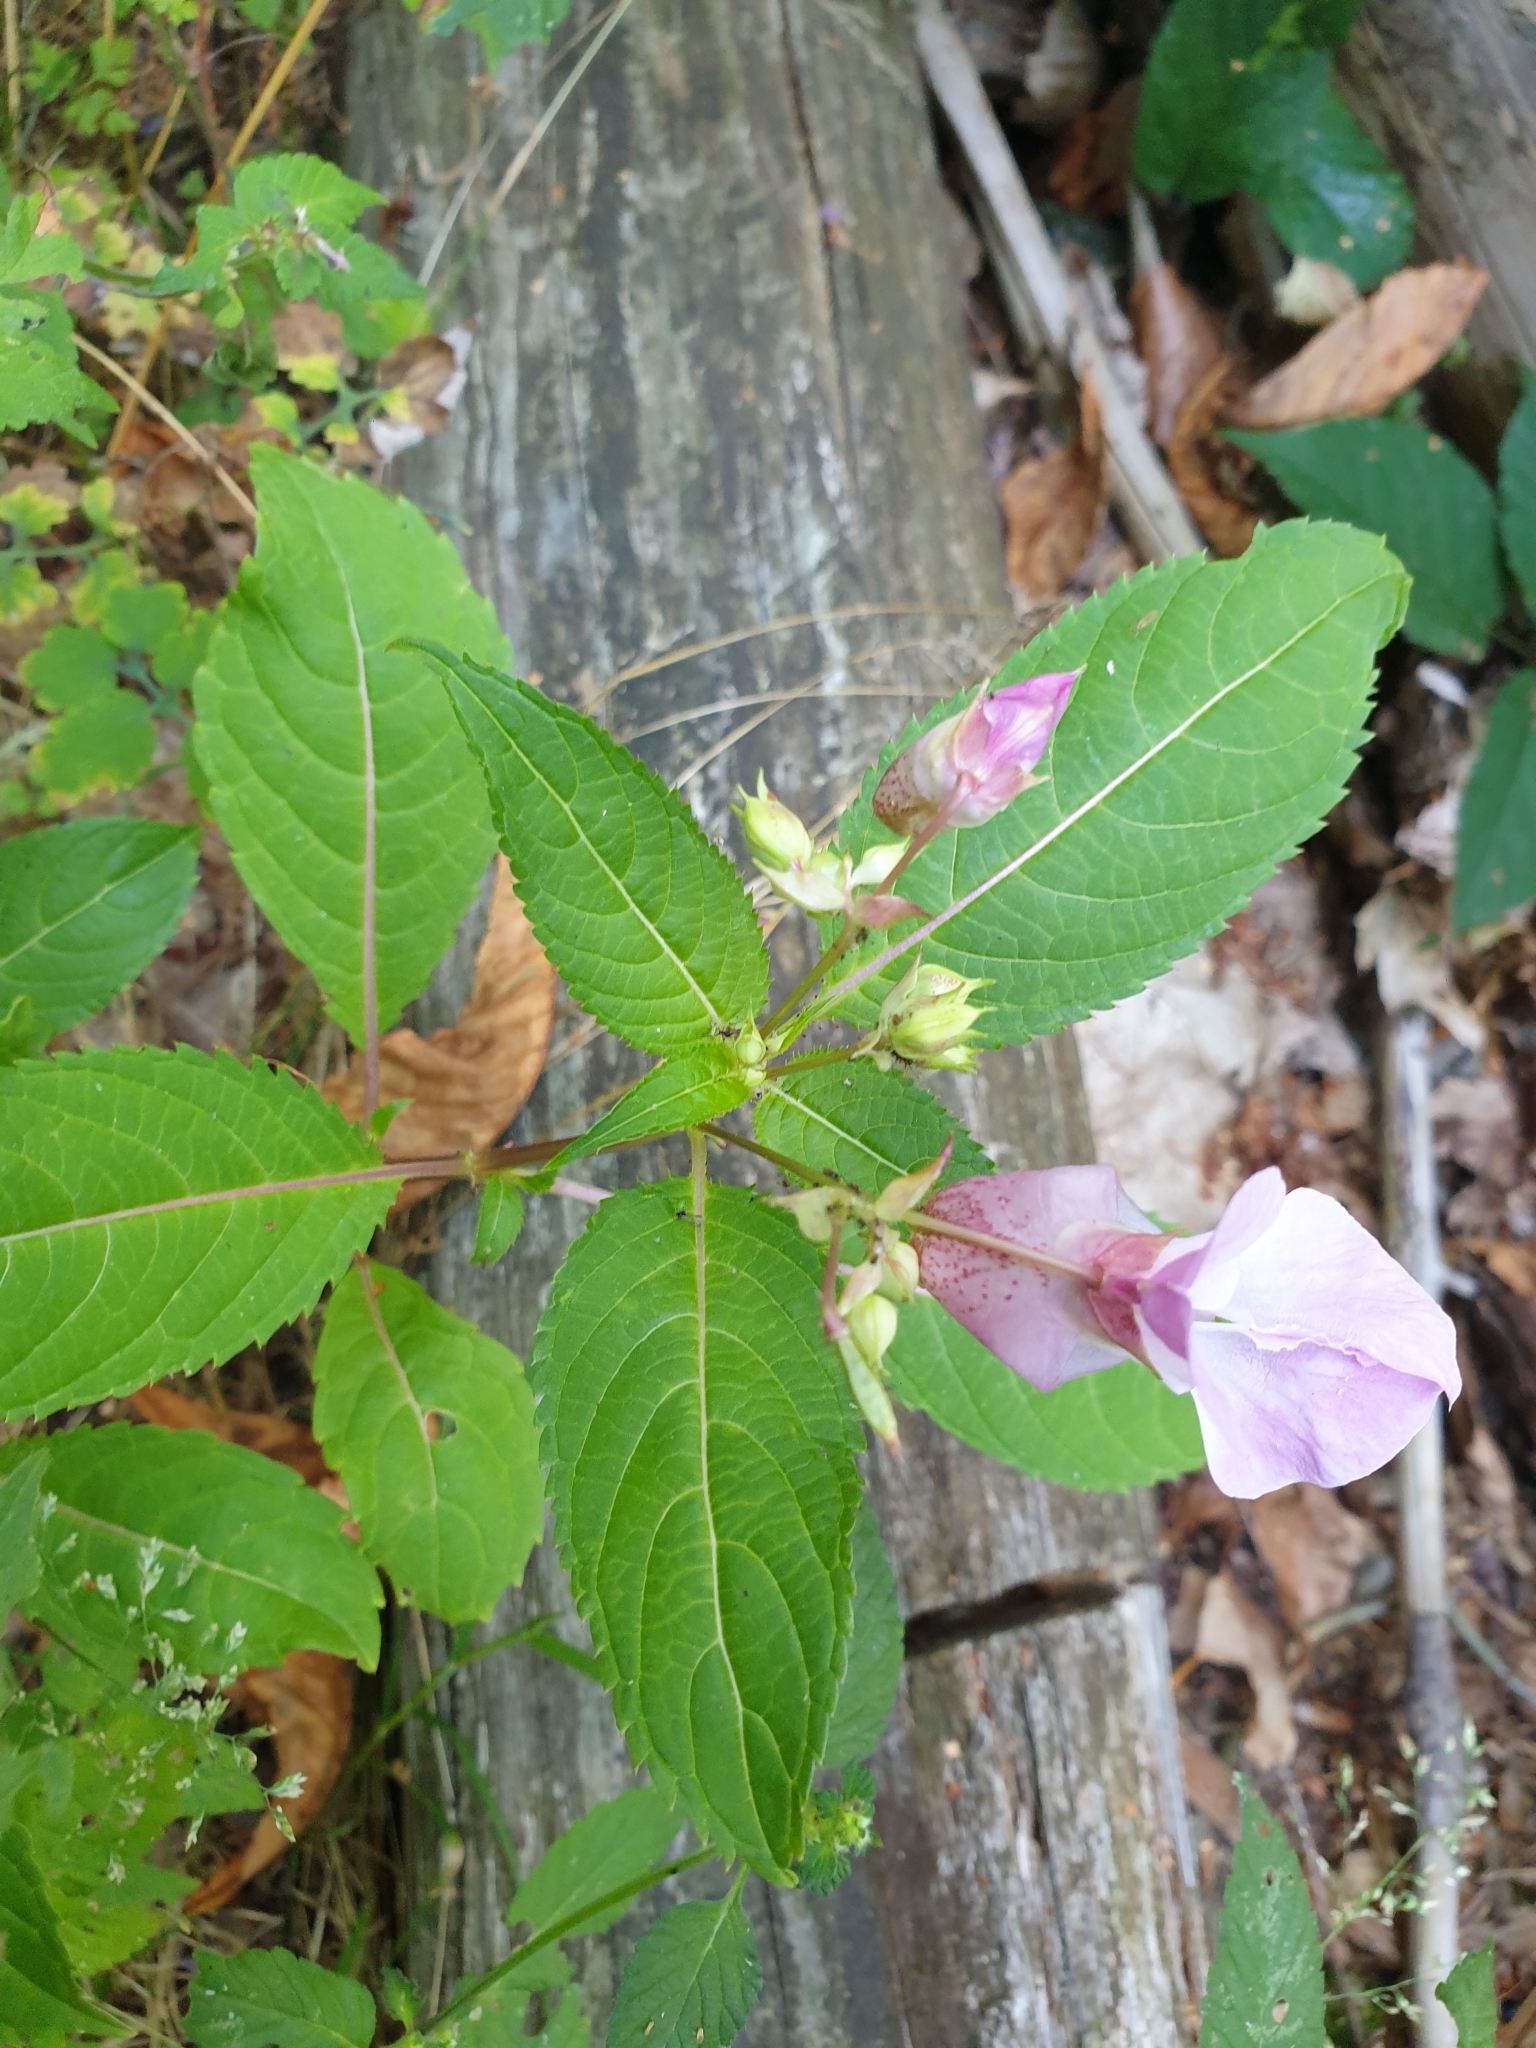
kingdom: Plantae
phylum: Tracheophyta
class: Magnoliopsida
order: Ericales
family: Balsaminaceae
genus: Impatiens
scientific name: Impatiens glandulifera
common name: Himalayan balsam
